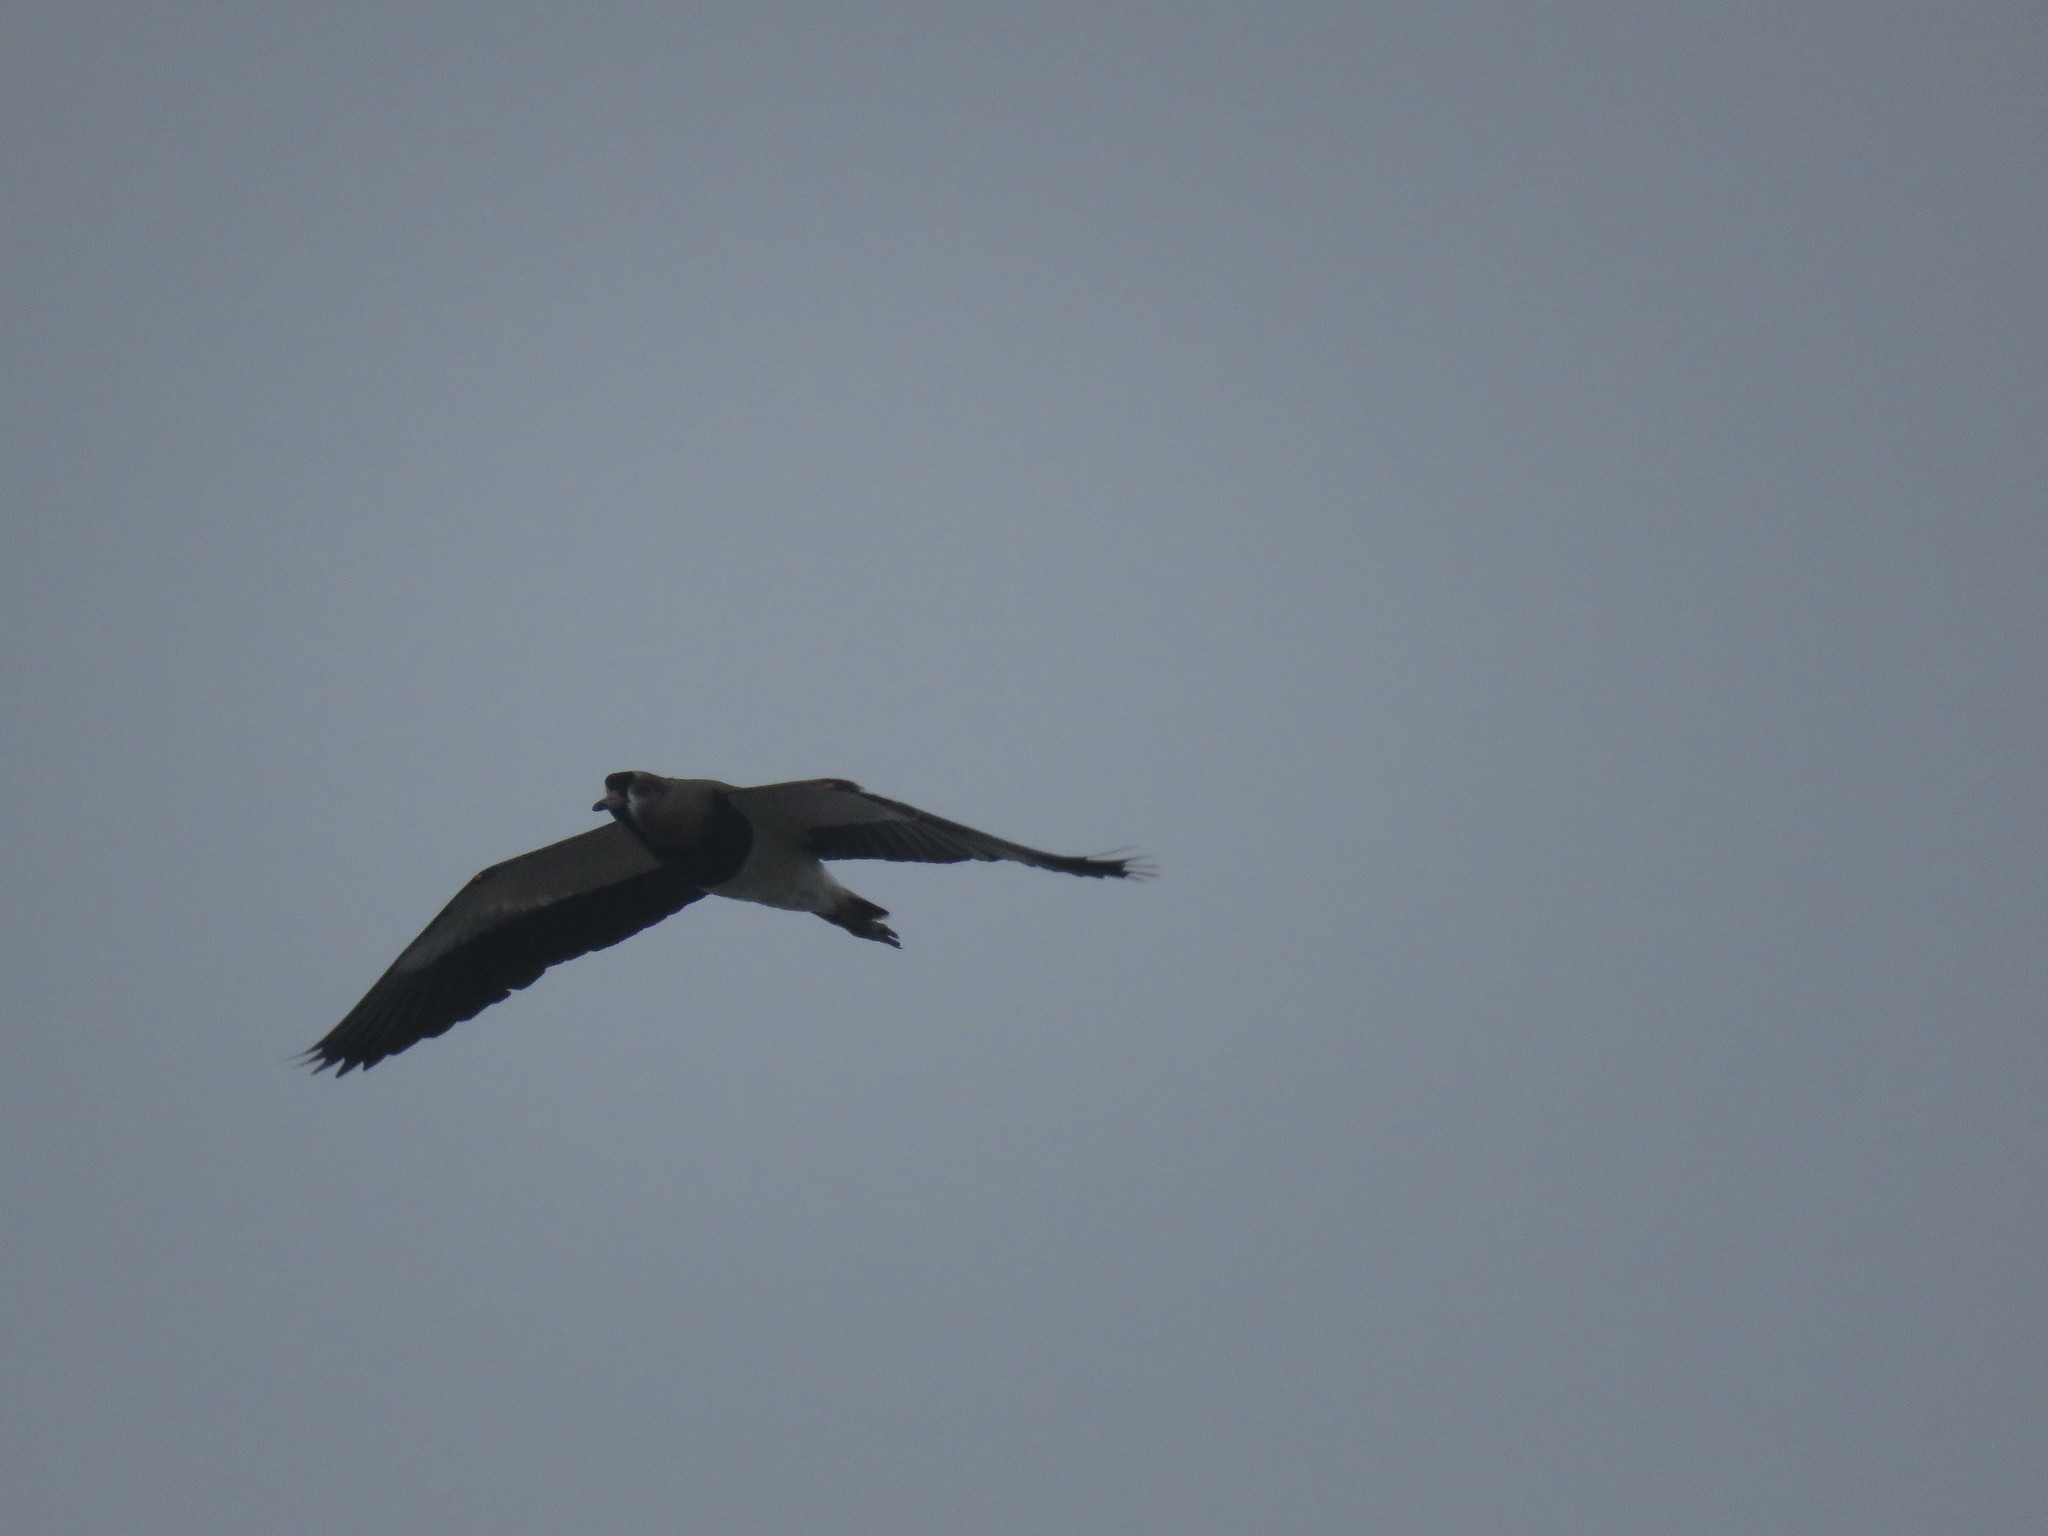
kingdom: Animalia
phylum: Chordata
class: Aves
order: Charadriiformes
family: Charadriidae
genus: Vanellus
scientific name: Vanellus chilensis
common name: Southern lapwing
